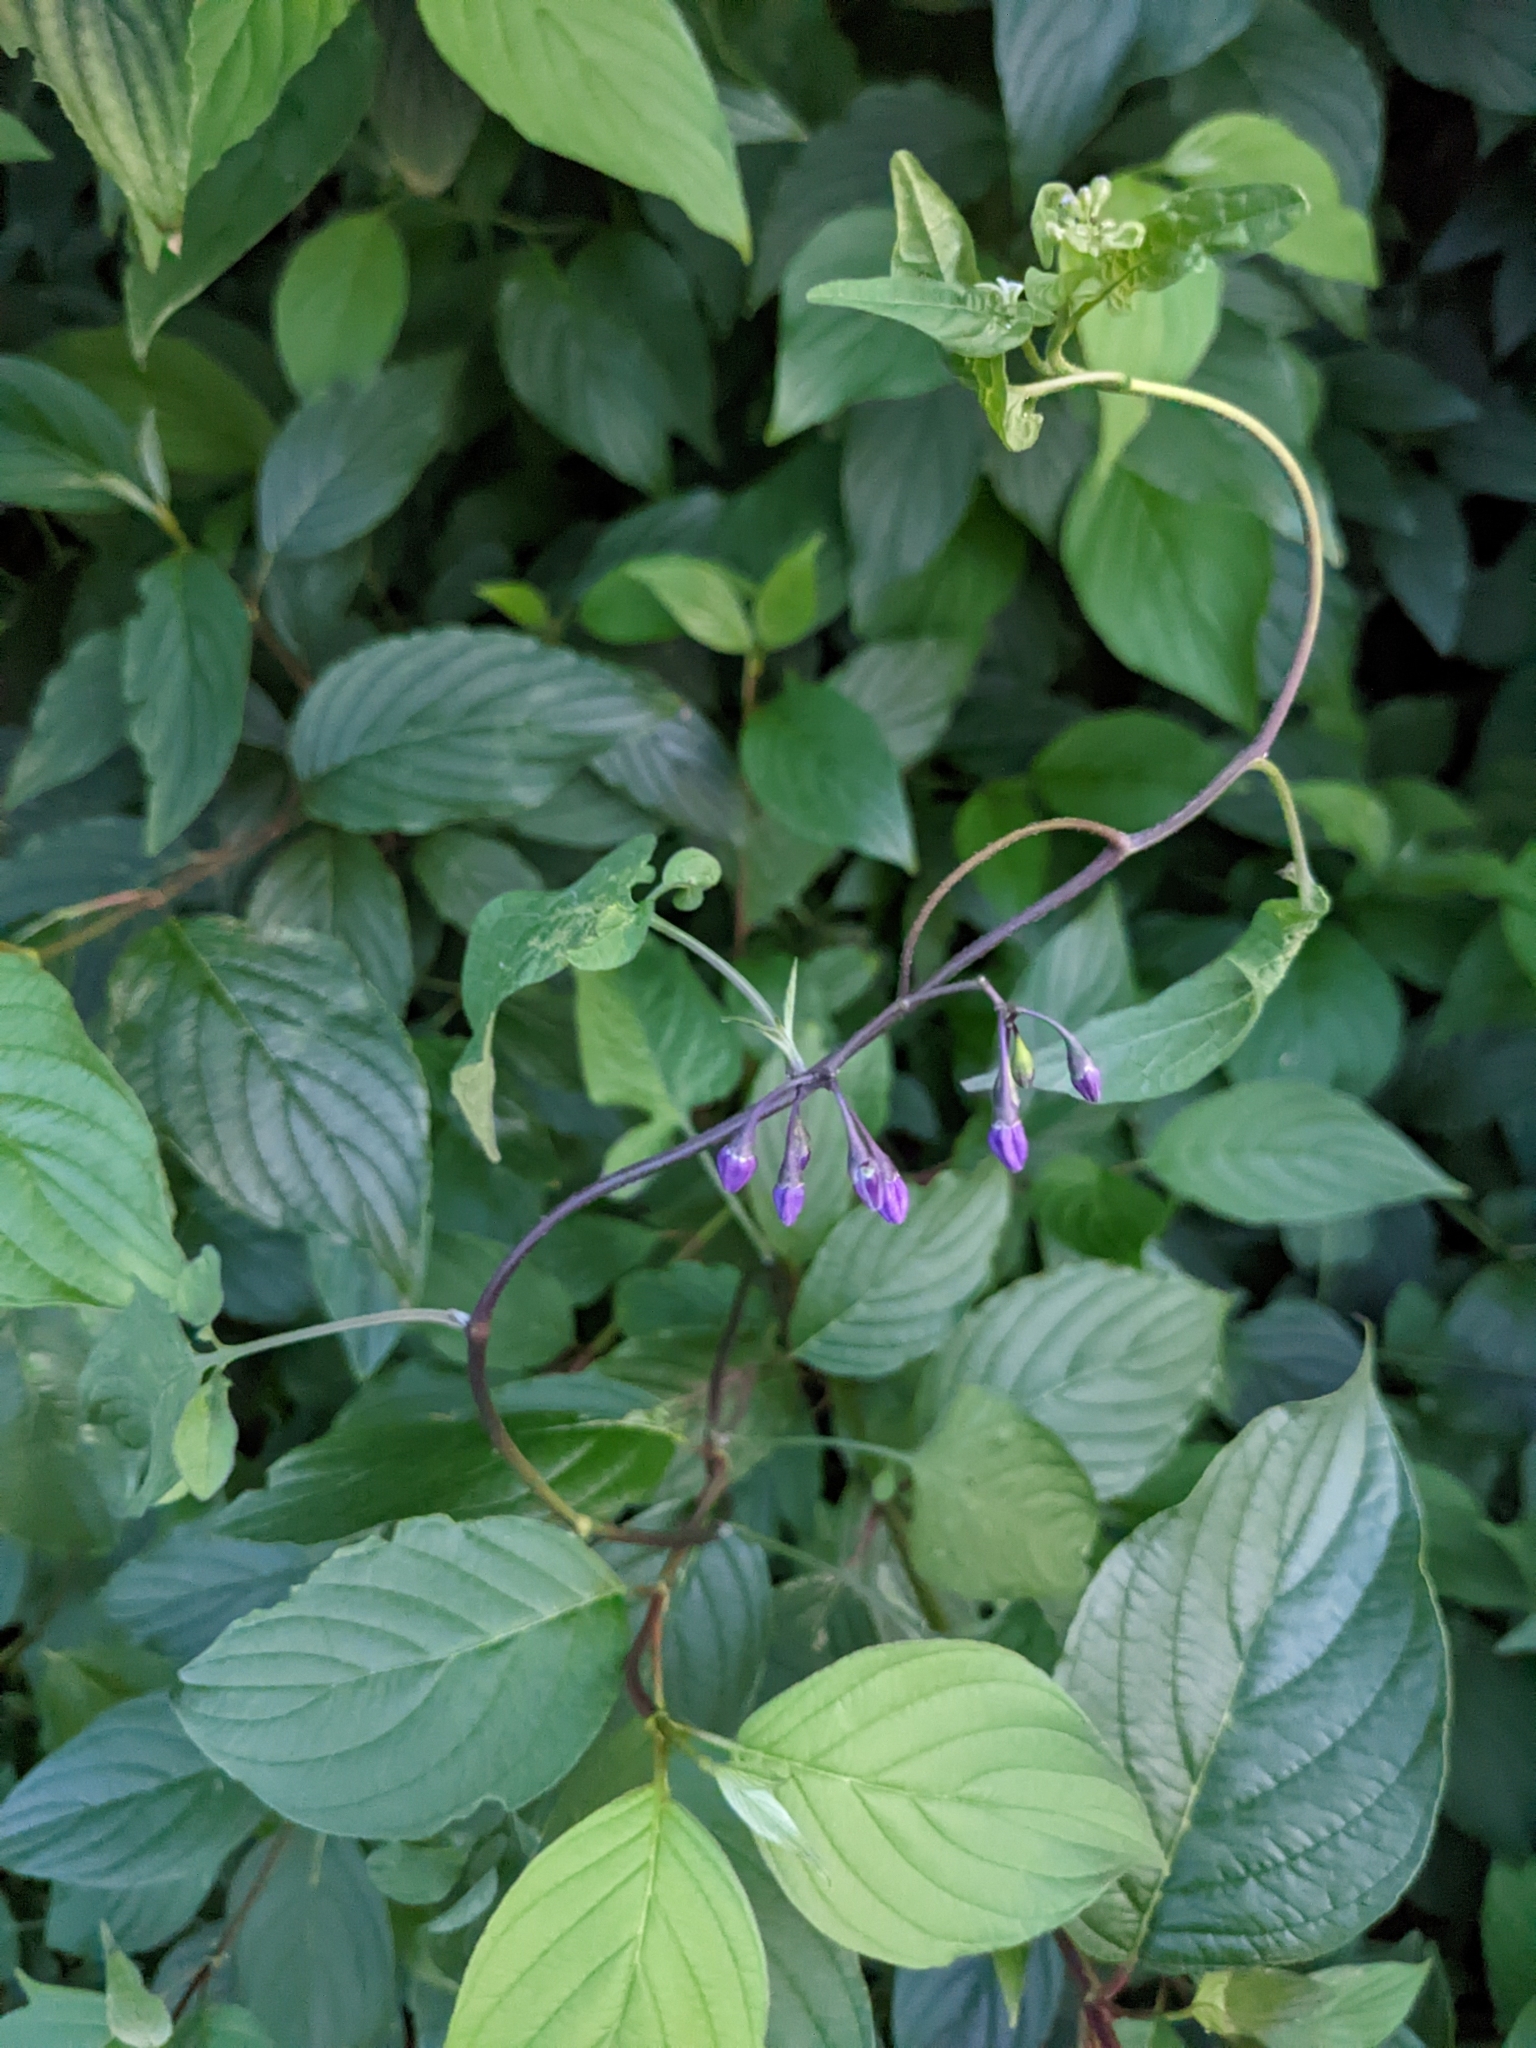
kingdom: Plantae
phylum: Tracheophyta
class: Magnoliopsida
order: Solanales
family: Solanaceae
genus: Solanum
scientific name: Solanum dulcamara
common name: Climbing nightshade
